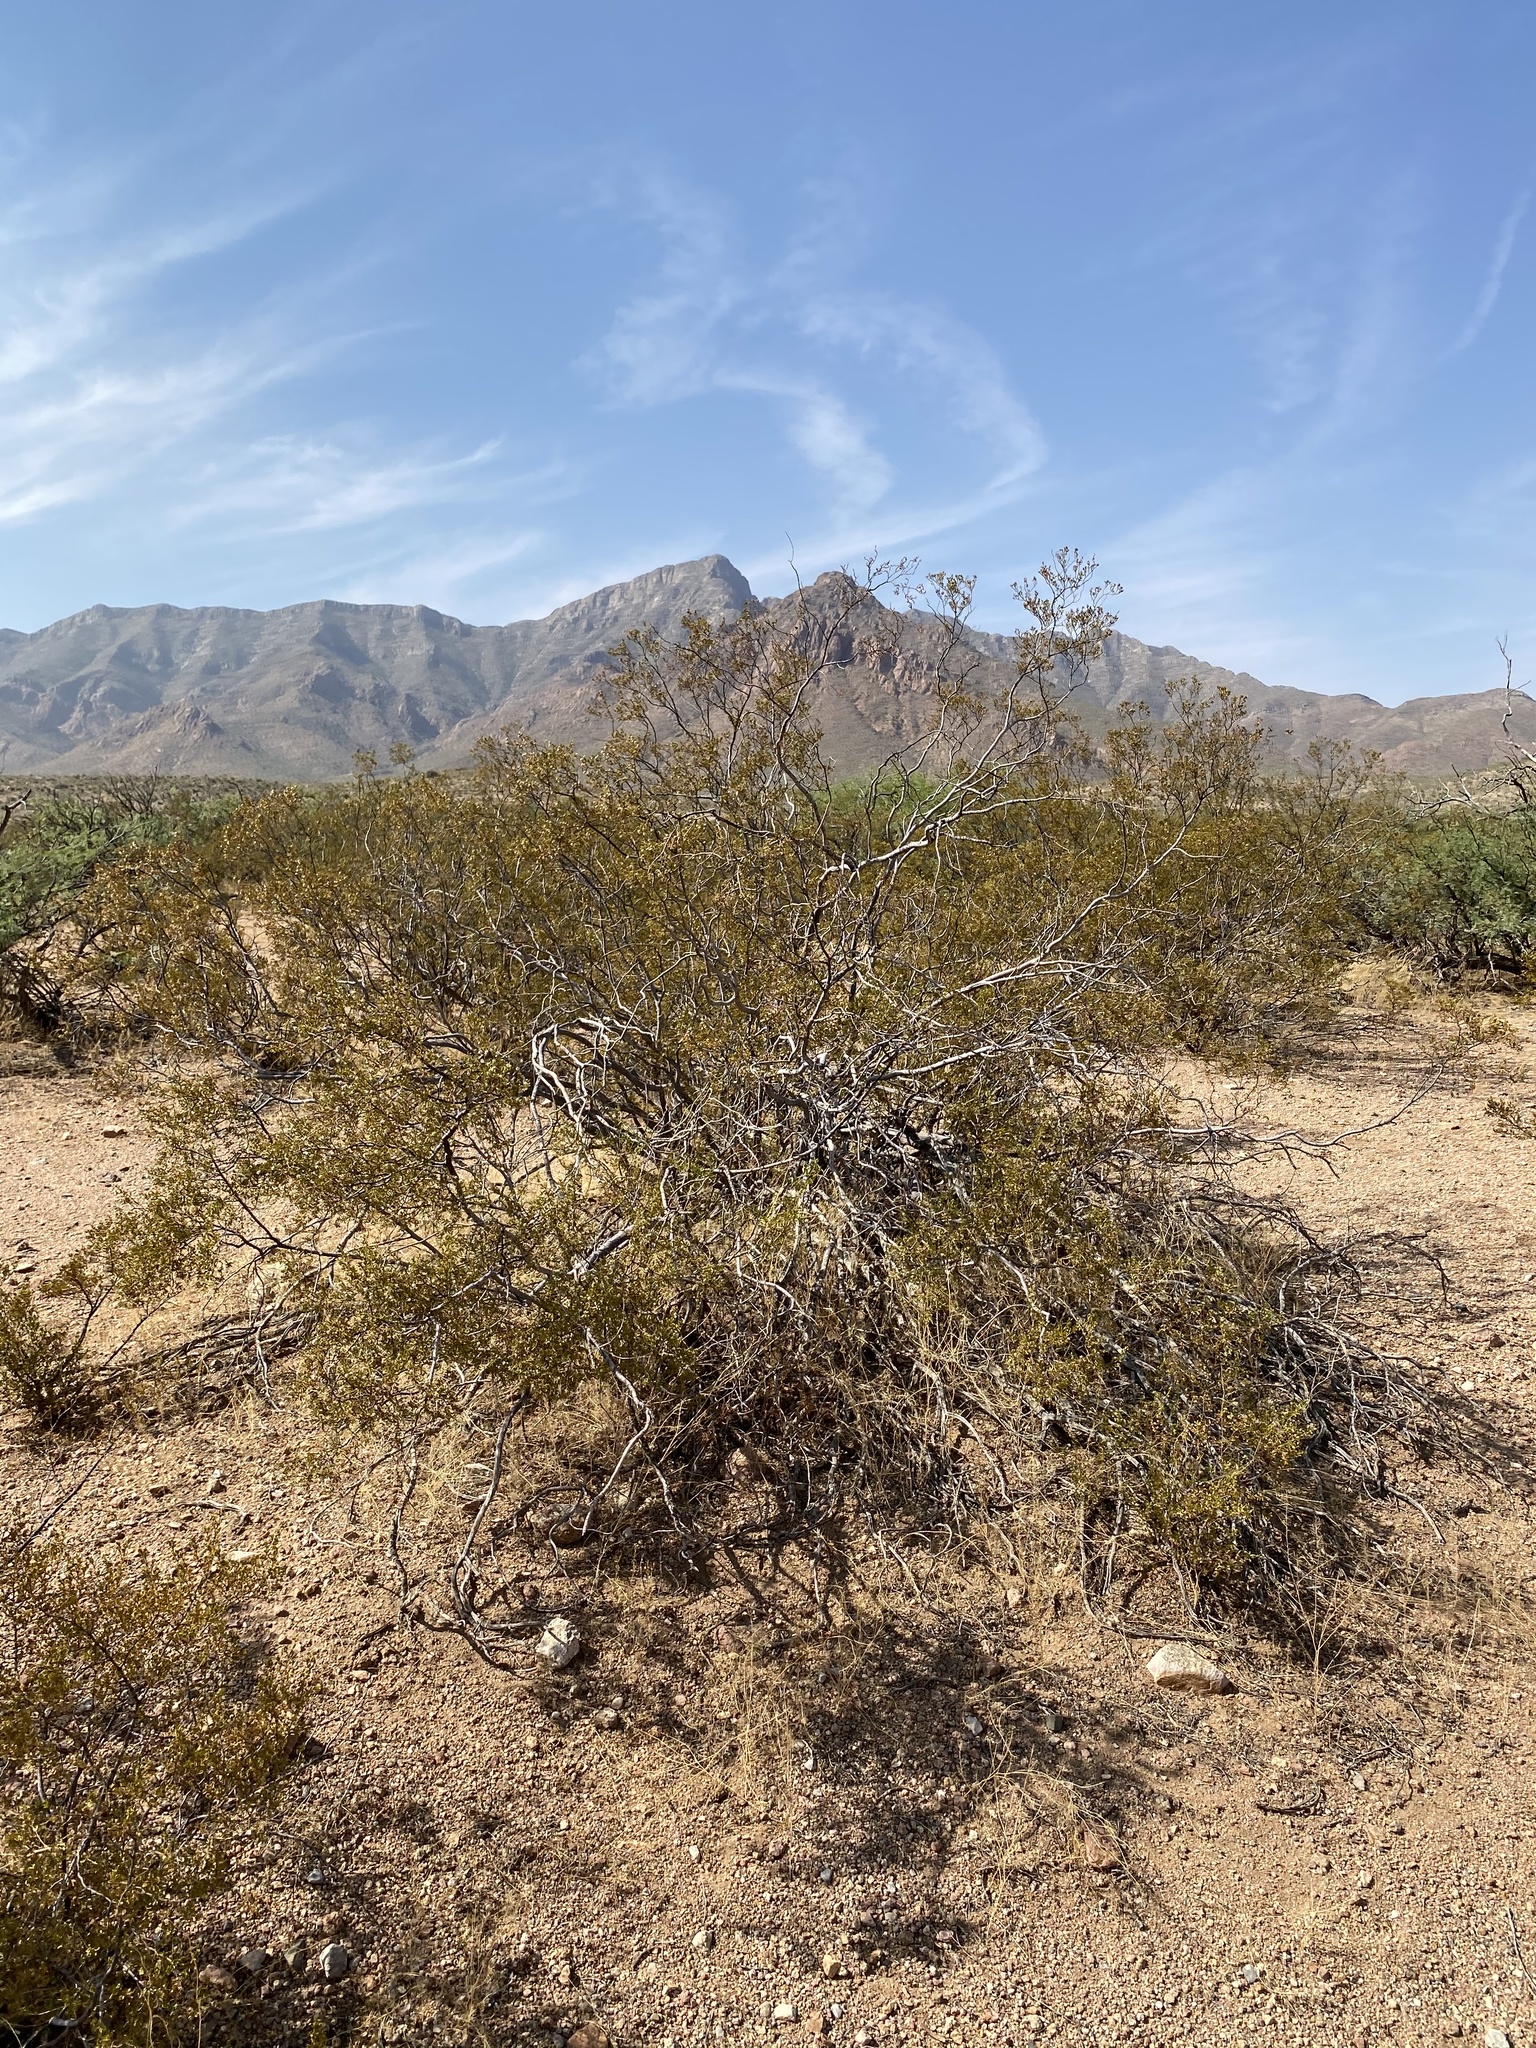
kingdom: Plantae
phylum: Tracheophyta
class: Magnoliopsida
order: Zygophyllales
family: Zygophyllaceae
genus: Larrea
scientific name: Larrea tridentata
